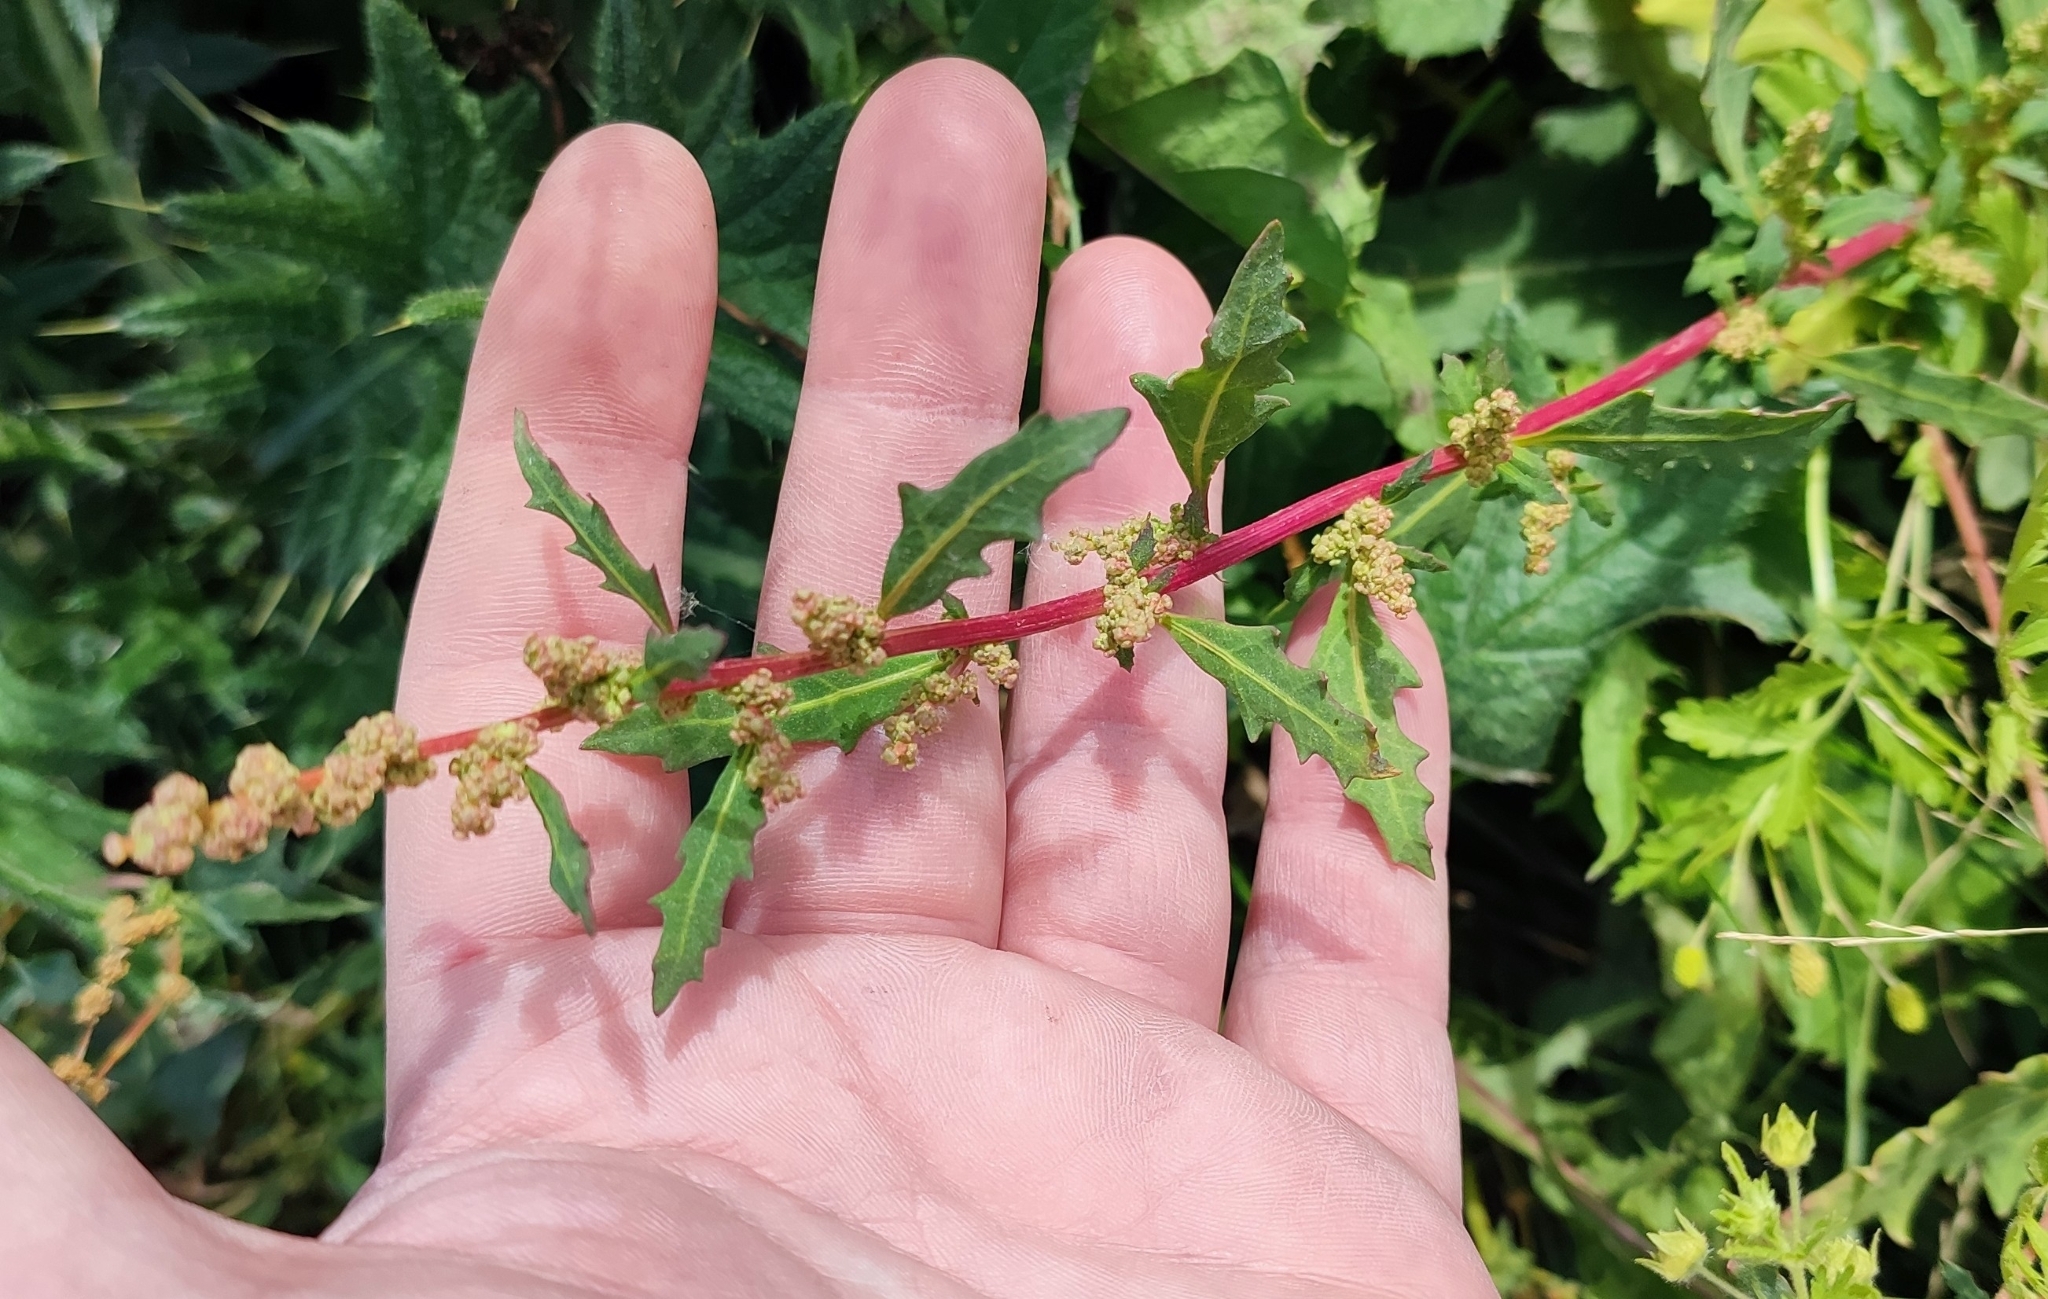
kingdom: Plantae
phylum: Tracheophyta
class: Magnoliopsida
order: Caryophyllales
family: Amaranthaceae
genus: Oxybasis
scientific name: Oxybasis glauca
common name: Glaucous goosefoot
